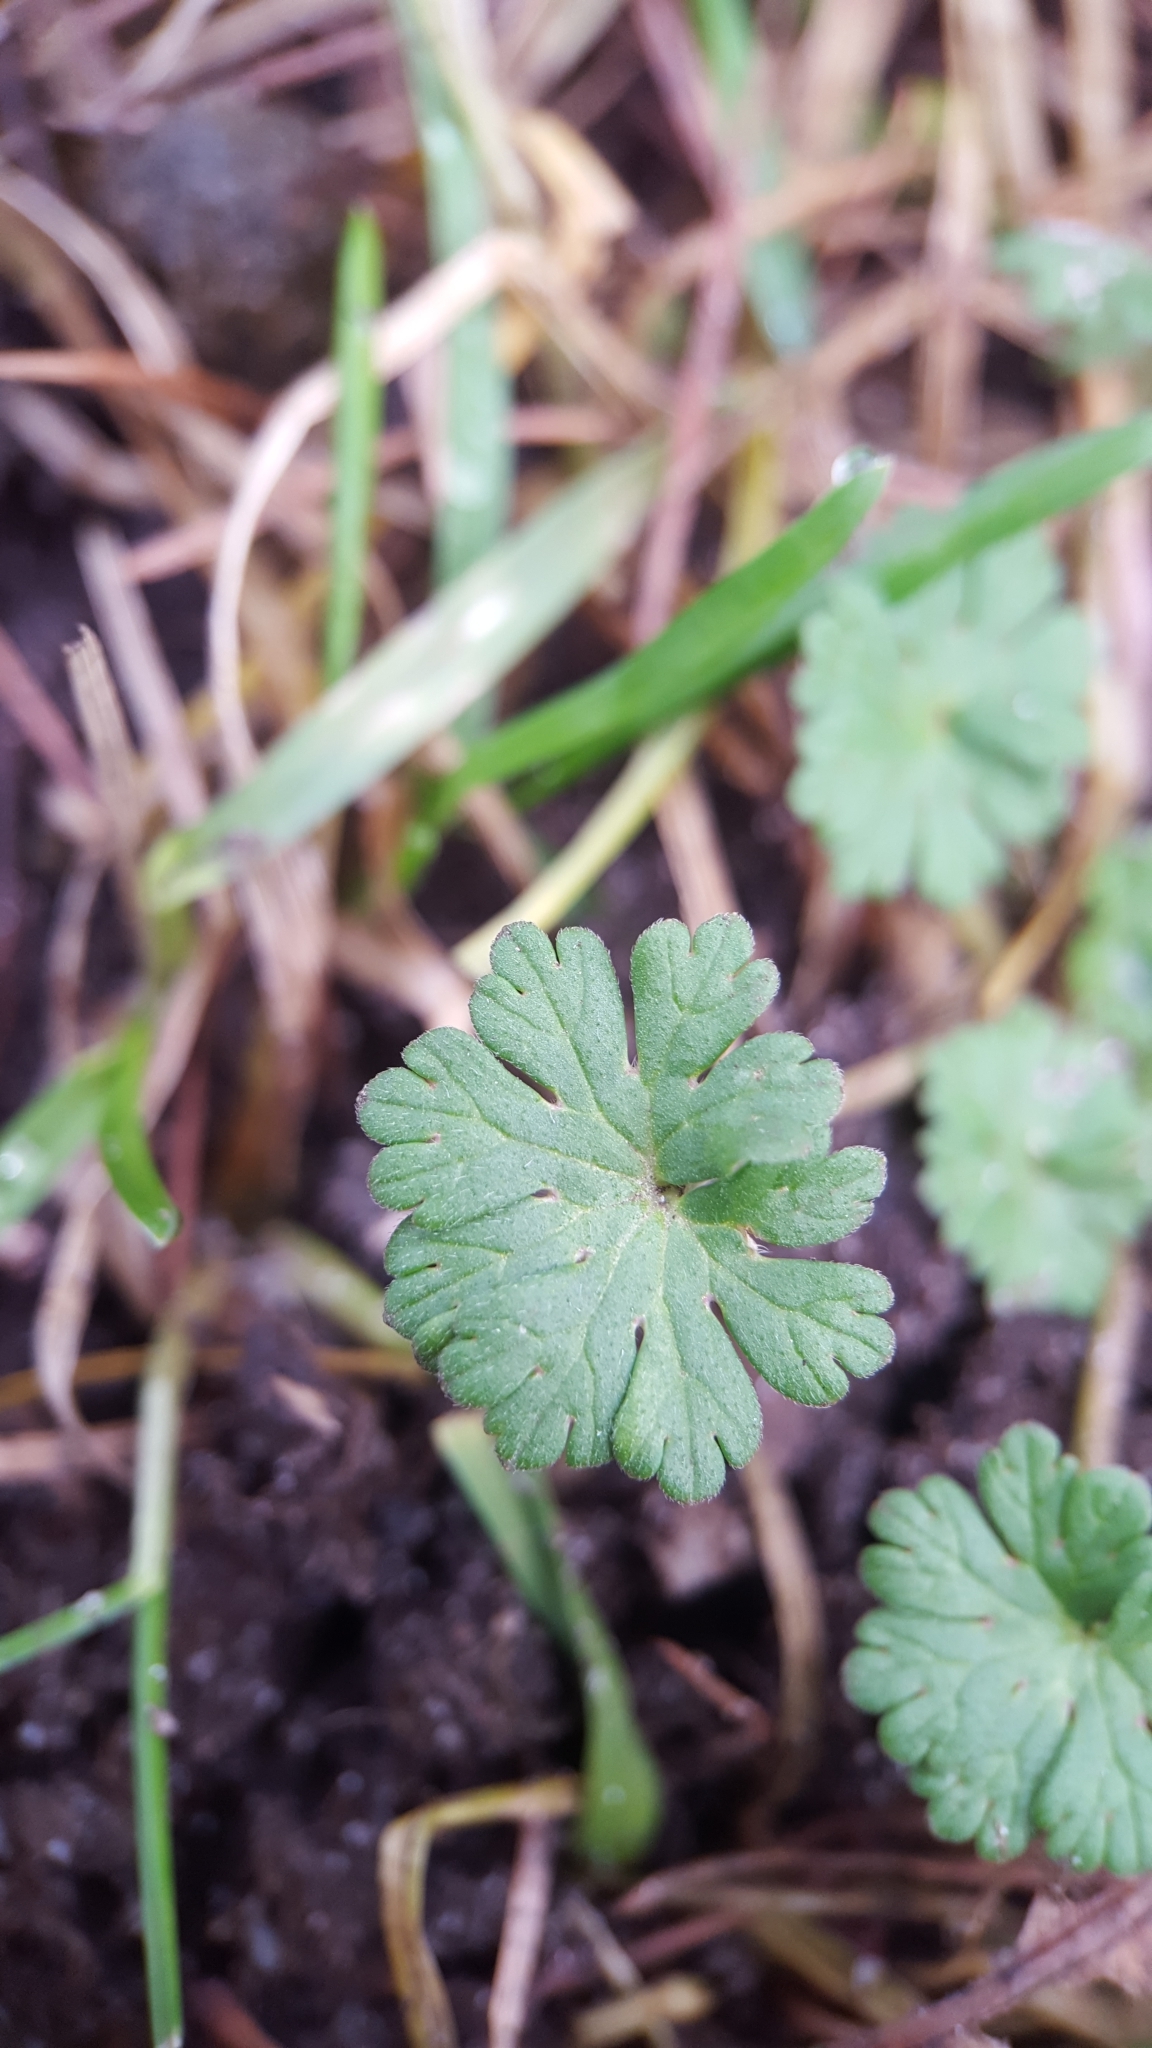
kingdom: Plantae
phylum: Tracheophyta
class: Magnoliopsida
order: Geraniales
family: Geraniaceae
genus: Geranium
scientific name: Geranium molle
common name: Dove's-foot crane's-bill
